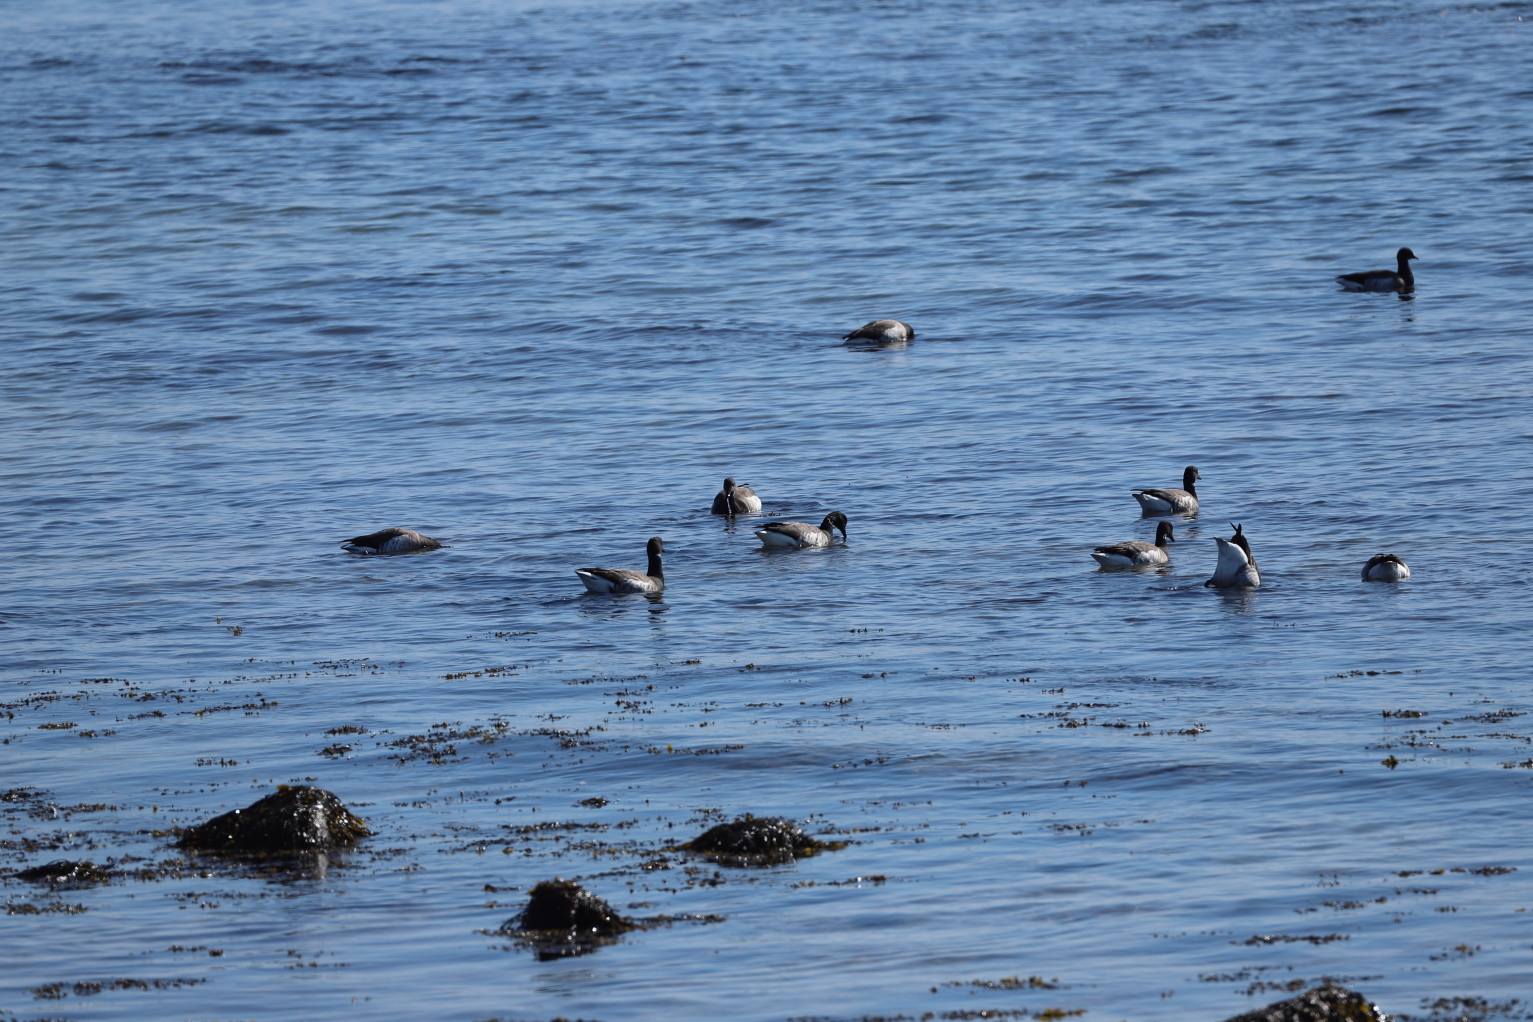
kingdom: Animalia
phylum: Chordata
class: Aves
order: Anseriformes
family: Anatidae
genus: Branta
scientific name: Branta bernicla
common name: Brant goose
